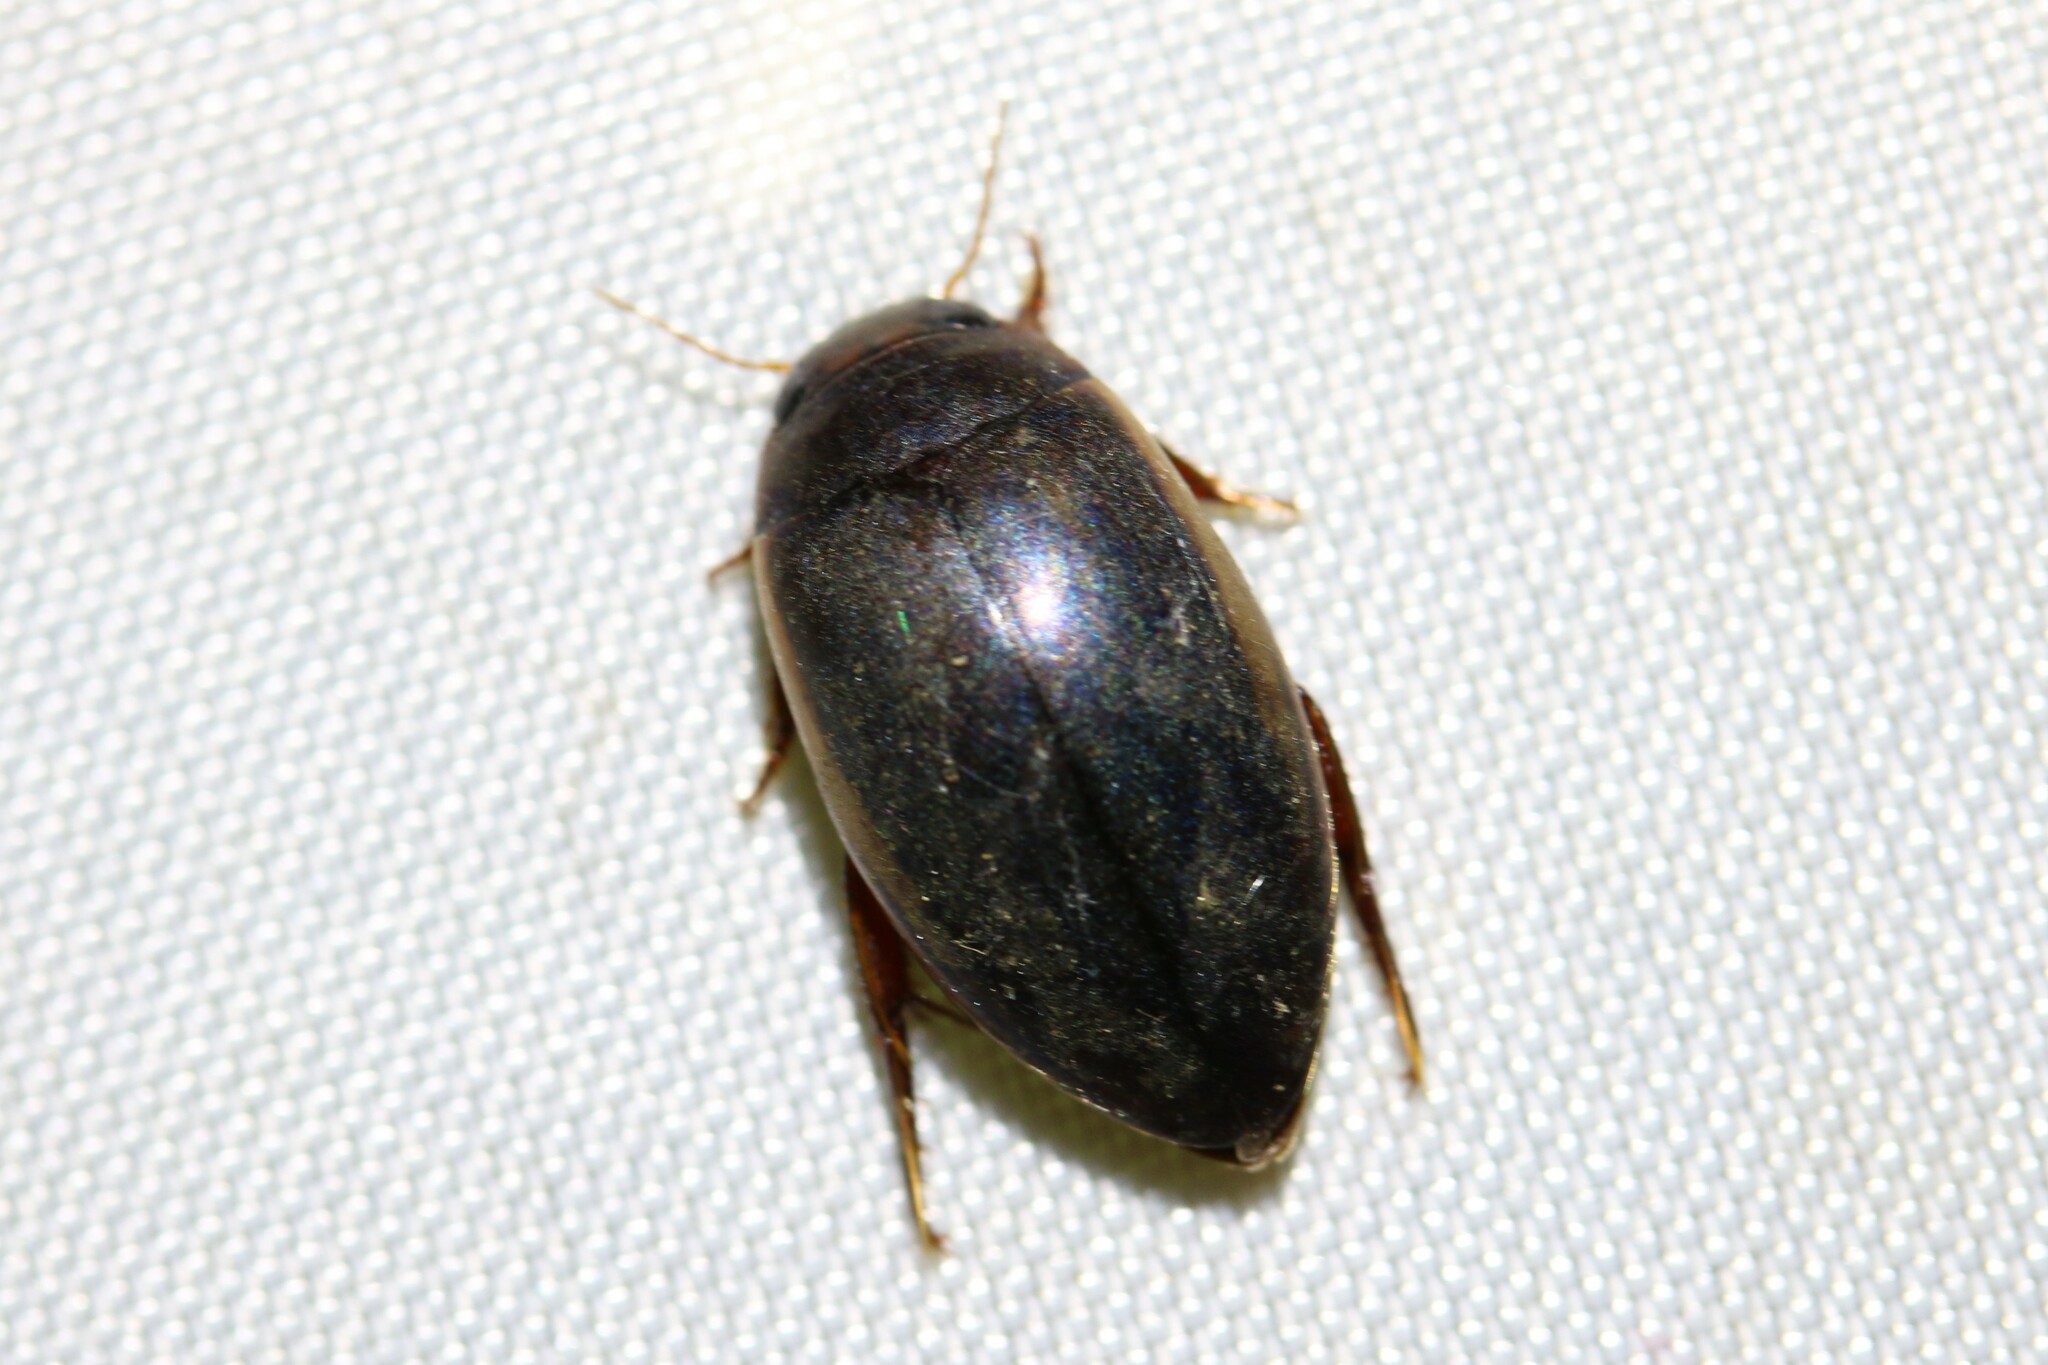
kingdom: Animalia
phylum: Arthropoda
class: Insecta
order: Coleoptera
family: Dytiscidae
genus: Ilybius
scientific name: Ilybius fuliginosus
